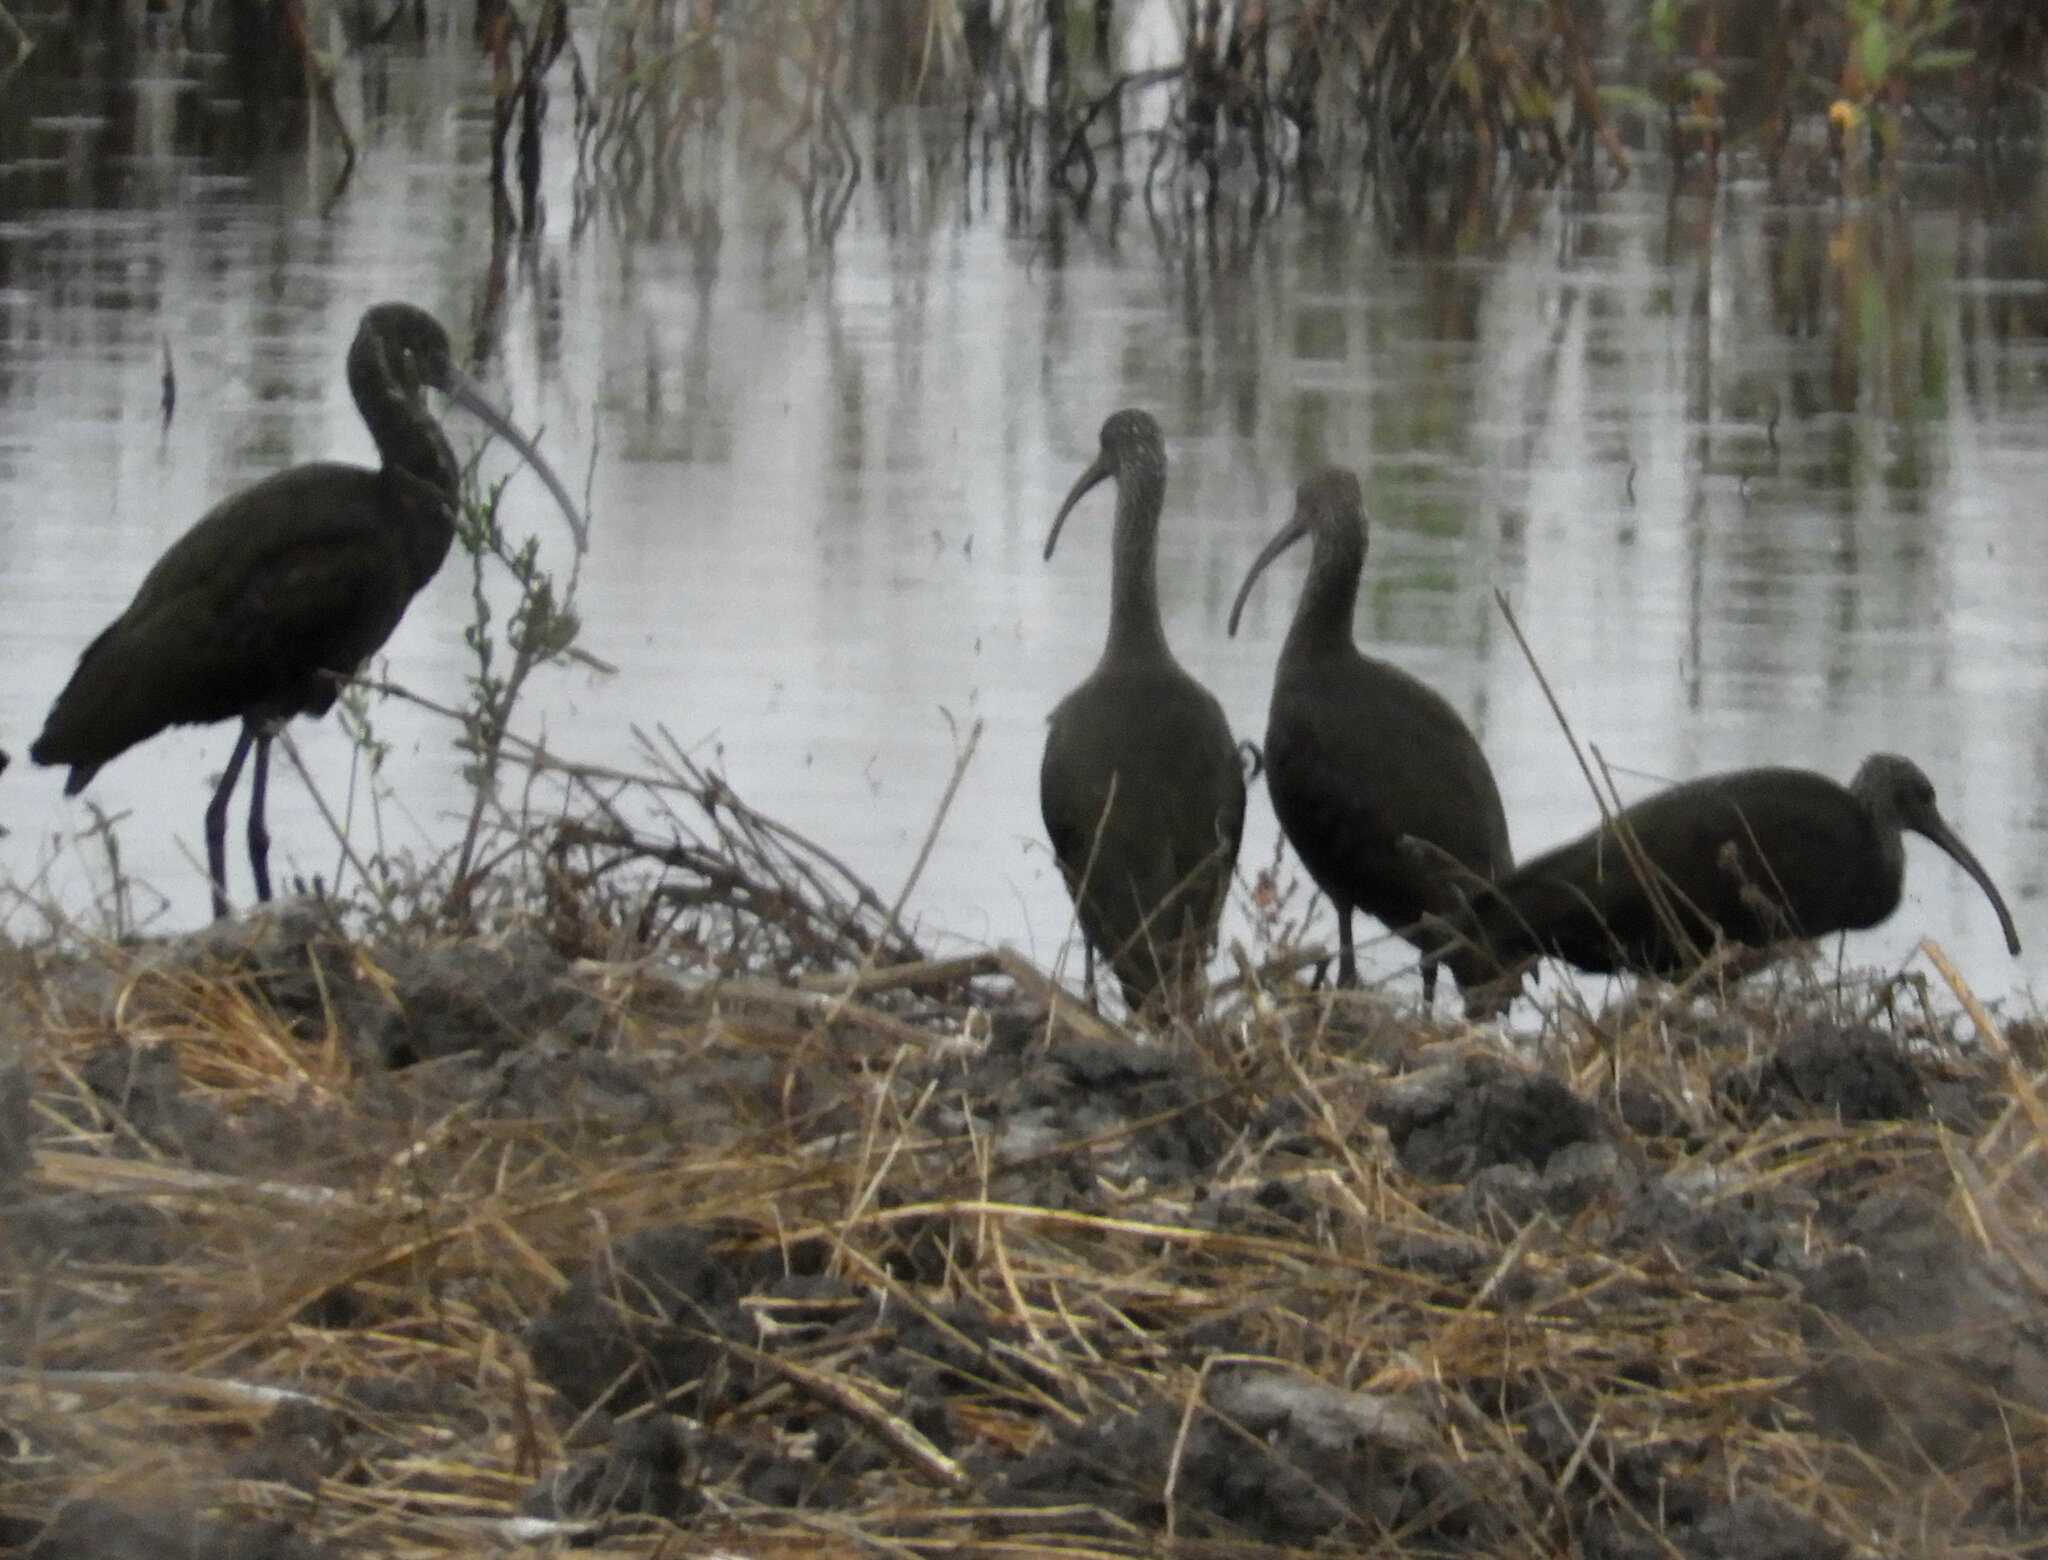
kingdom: Animalia
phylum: Chordata
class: Aves
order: Pelecaniformes
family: Threskiornithidae
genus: Plegadis
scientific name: Plegadis chihi
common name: White-faced ibis
